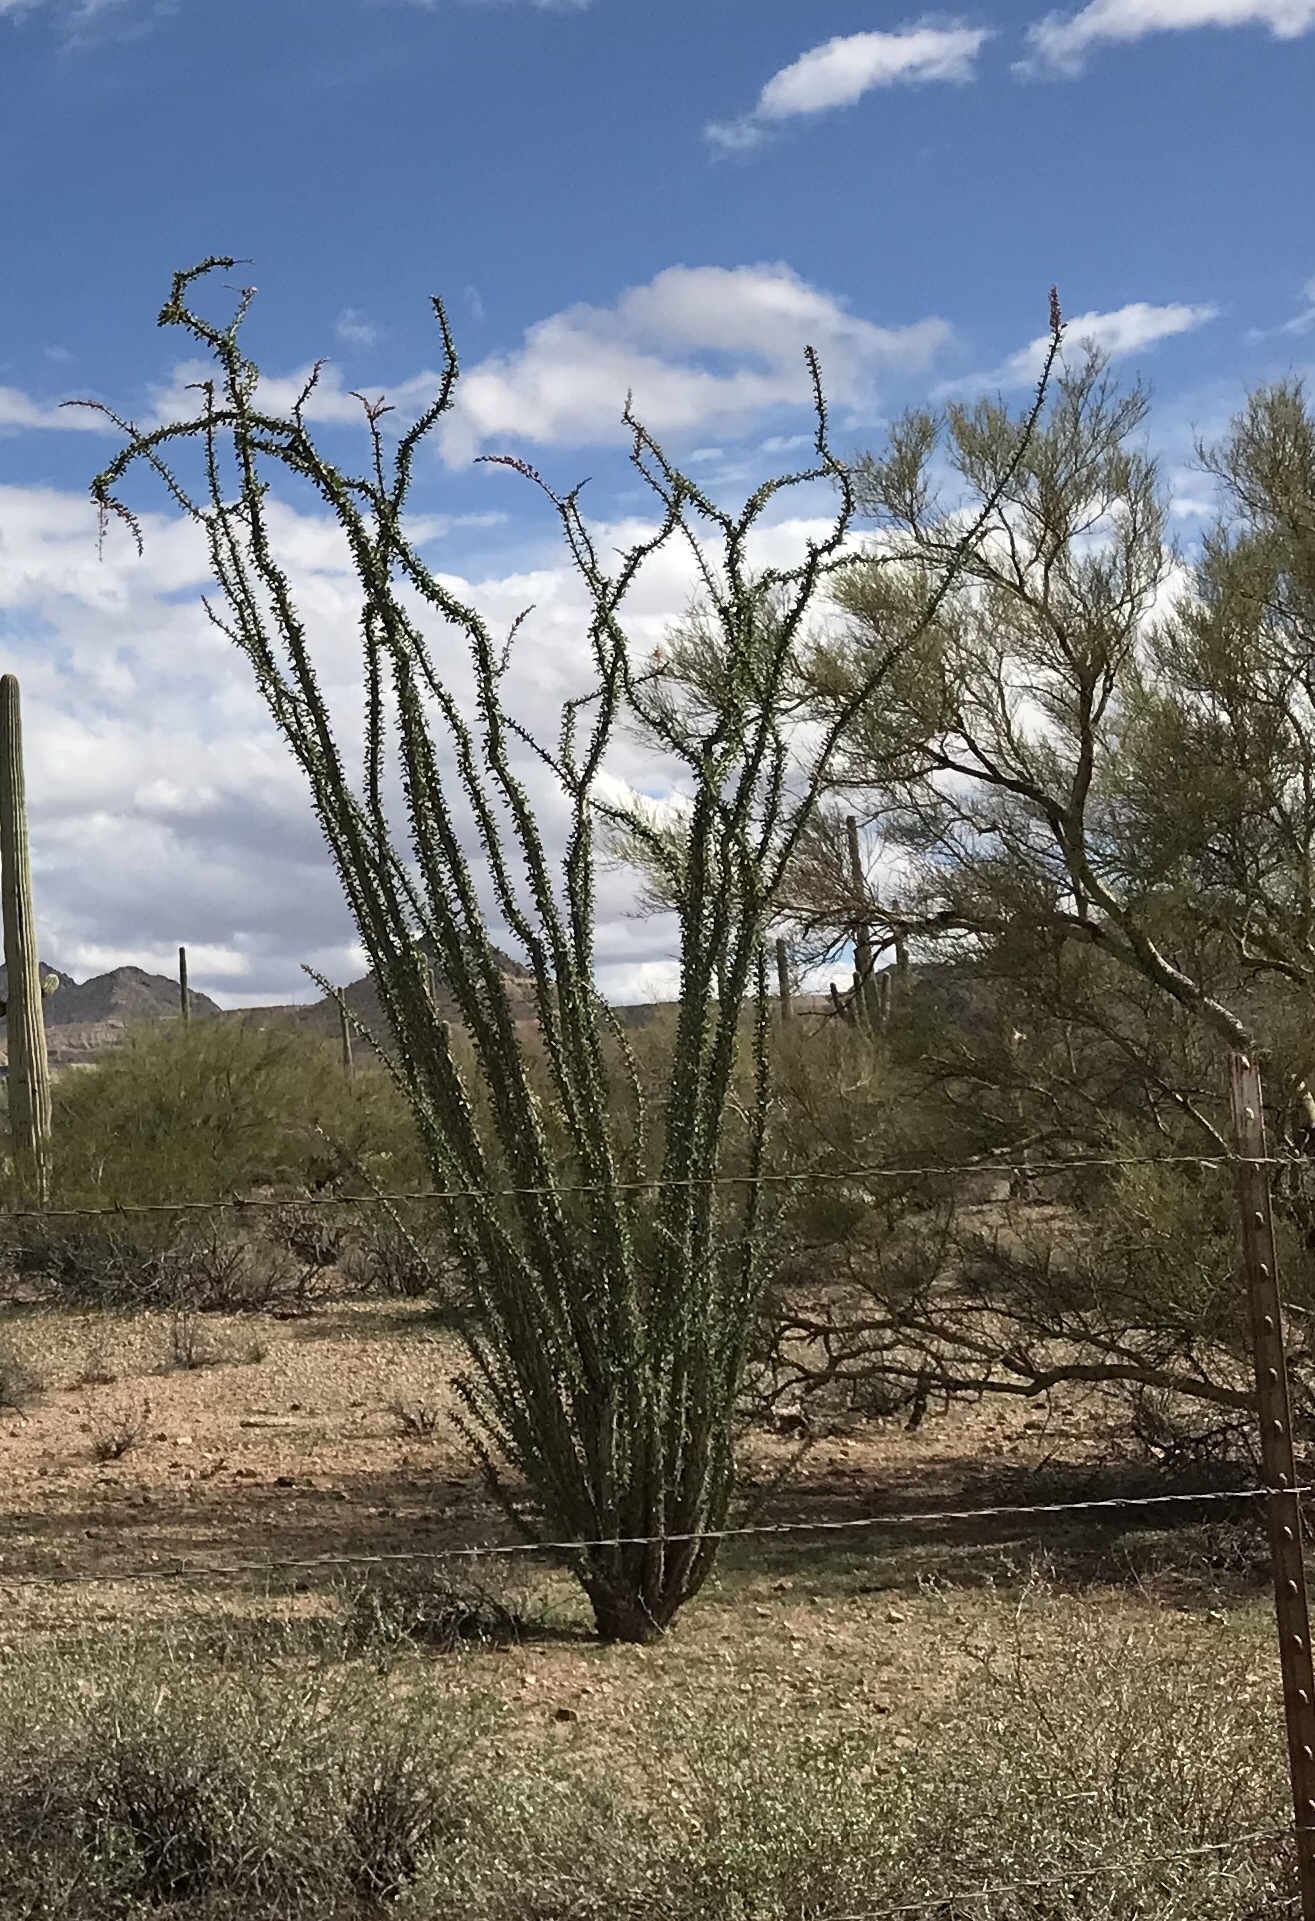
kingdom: Plantae
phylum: Tracheophyta
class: Magnoliopsida
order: Ericales
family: Fouquieriaceae
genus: Fouquieria
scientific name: Fouquieria splendens
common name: Vine-cactus
